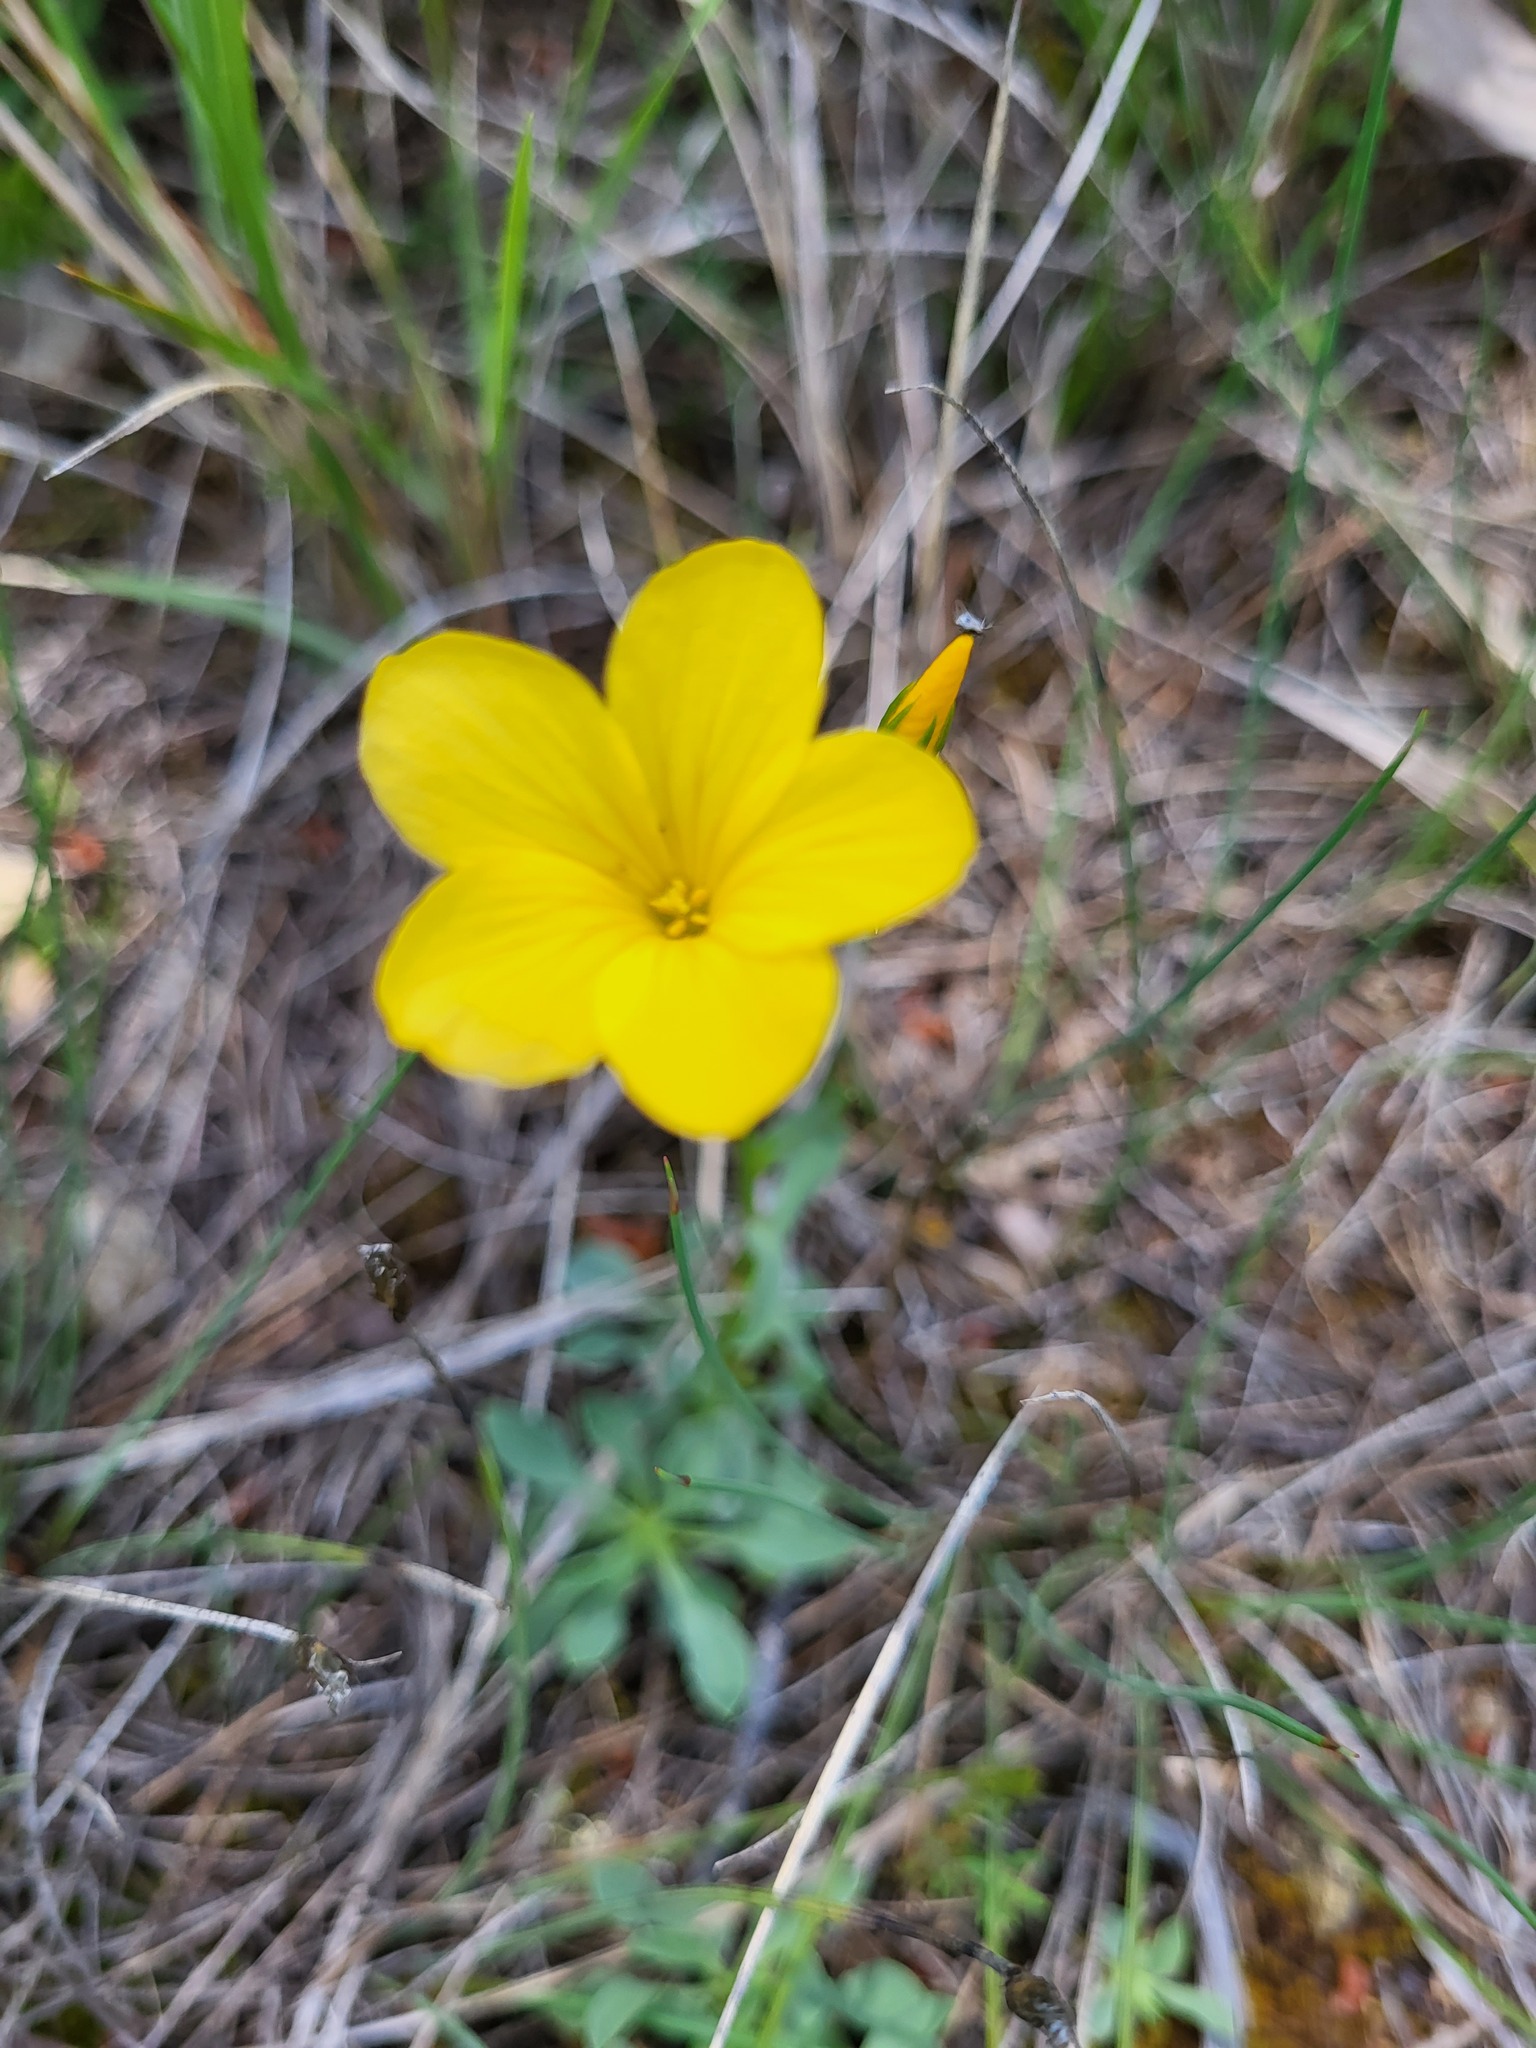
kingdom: Plantae
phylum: Tracheophyta
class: Magnoliopsida
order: Malpighiales
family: Linaceae
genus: Linum
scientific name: Linum campanulatum
